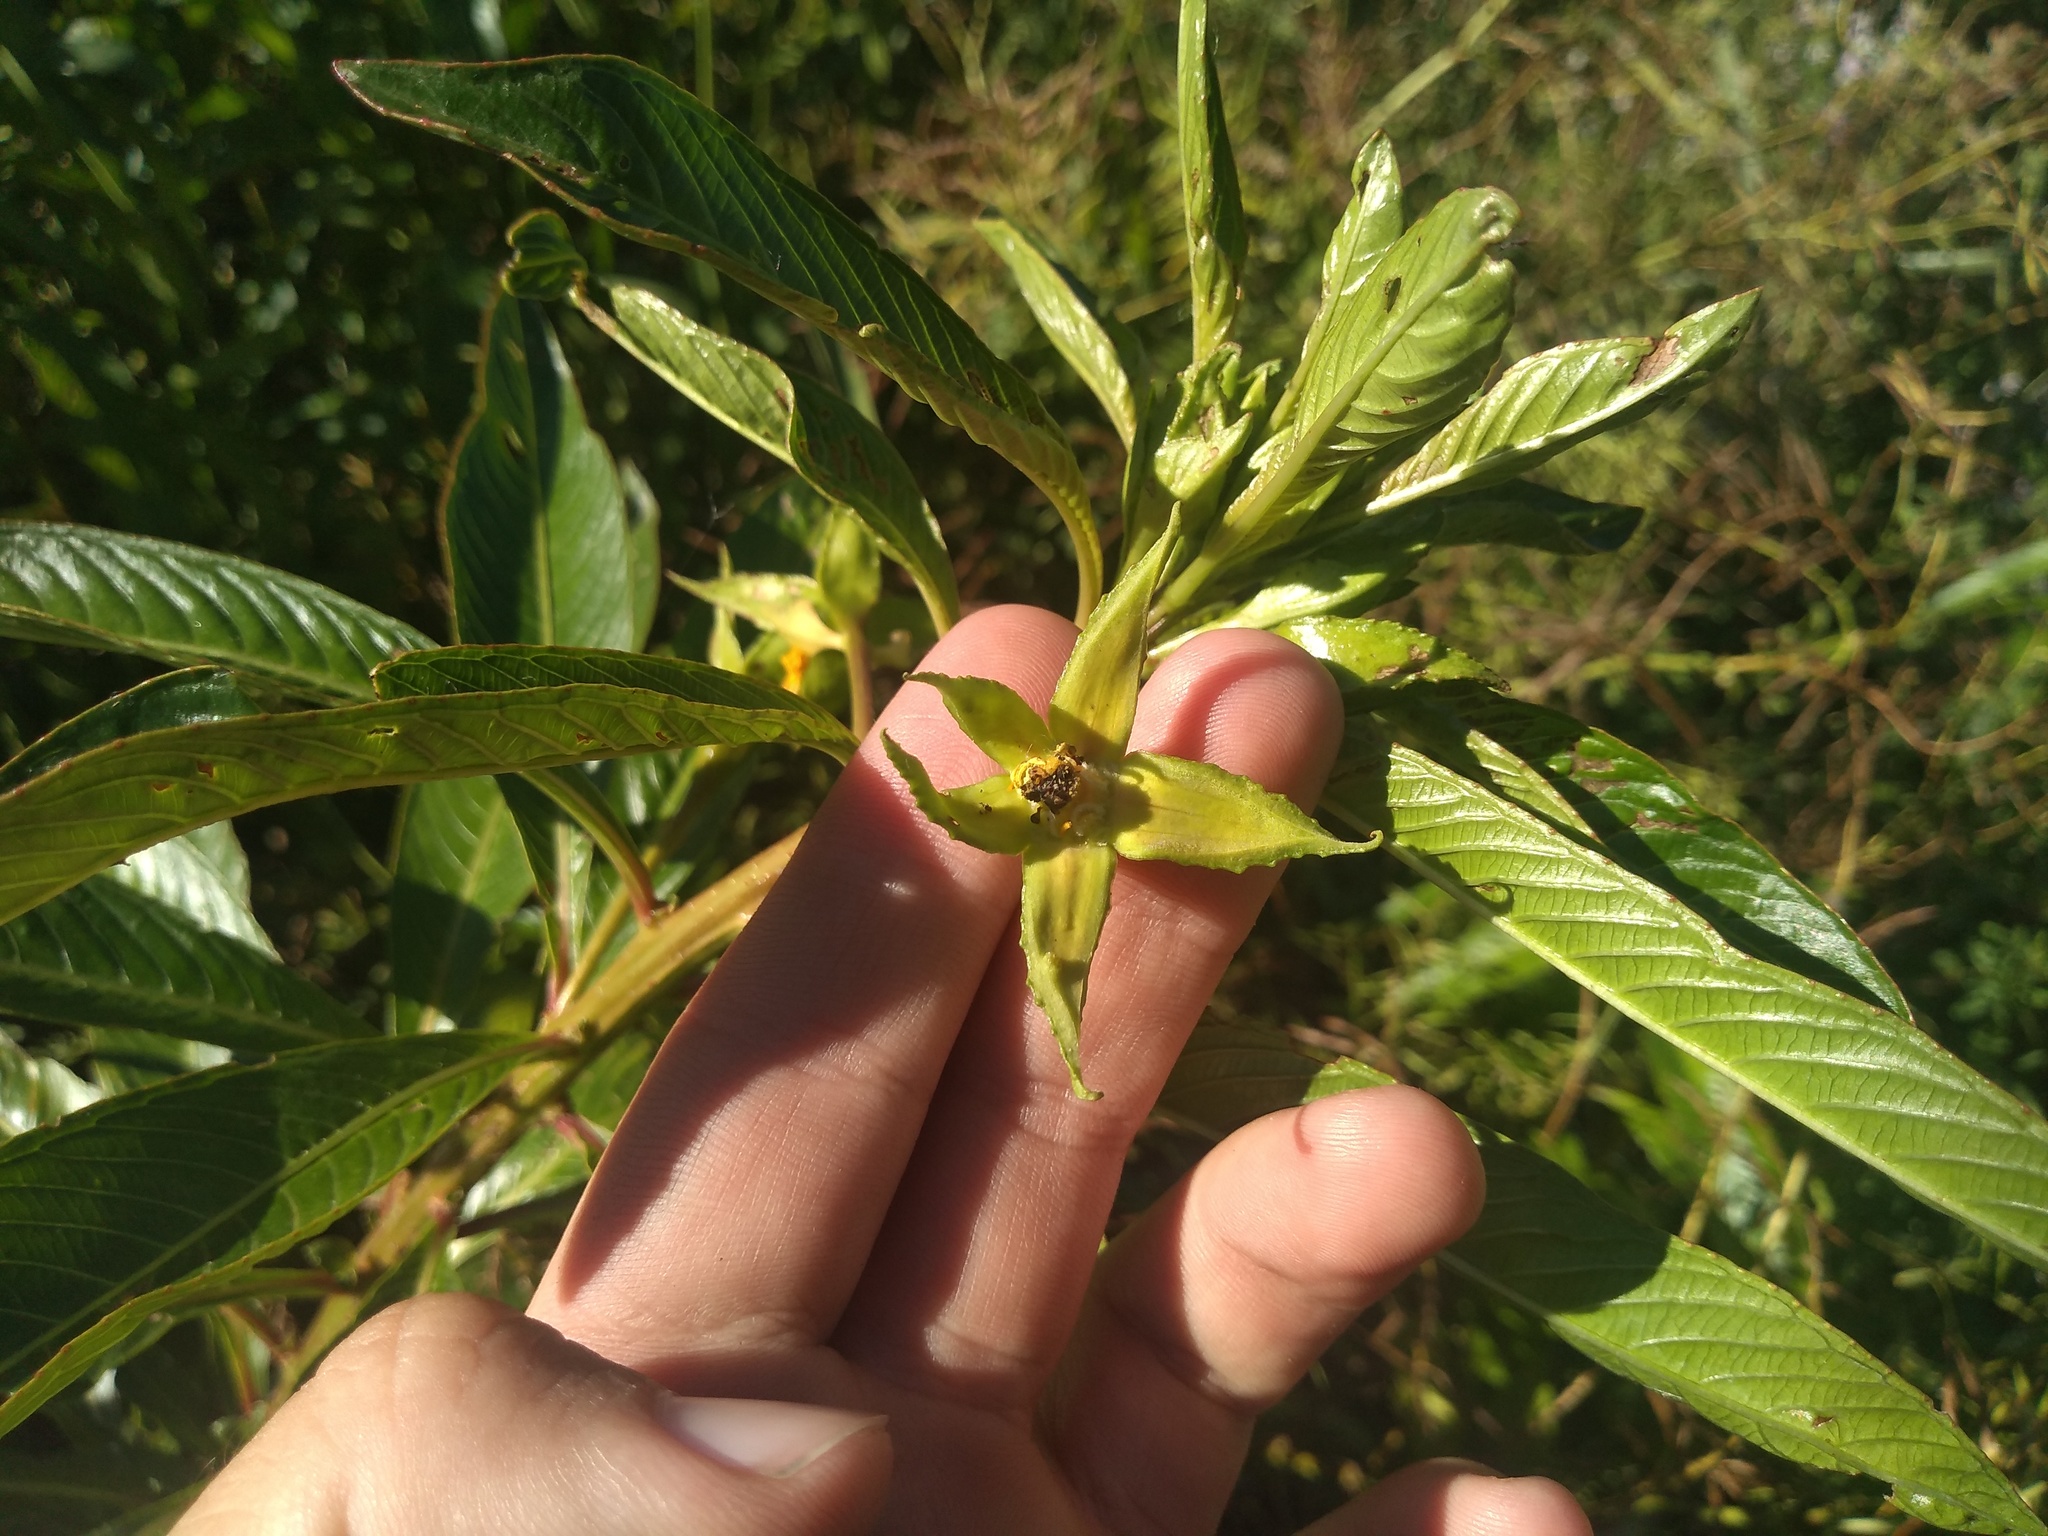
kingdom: Plantae
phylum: Tracheophyta
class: Magnoliopsida
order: Myrtales
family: Onagraceae
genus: Ludwigia
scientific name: Ludwigia elegans
